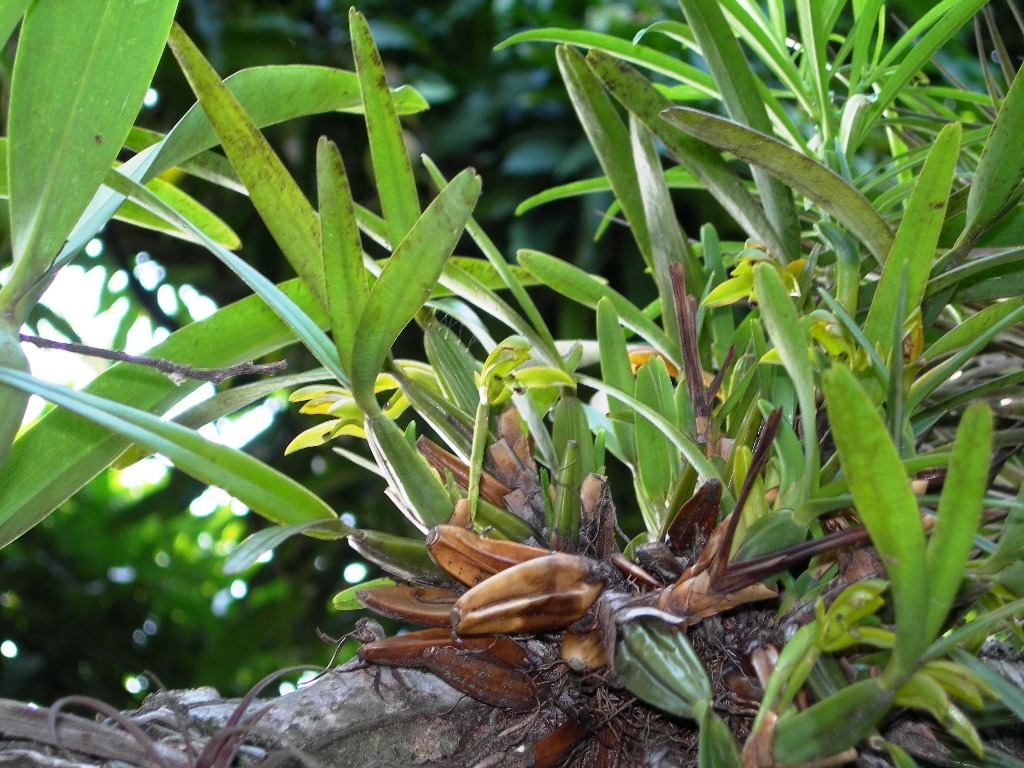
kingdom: Plantae
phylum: Tracheophyta
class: Liliopsida
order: Asparagales
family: Orchidaceae
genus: Maxillaria
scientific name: Maxillaria friedrichsthalii
